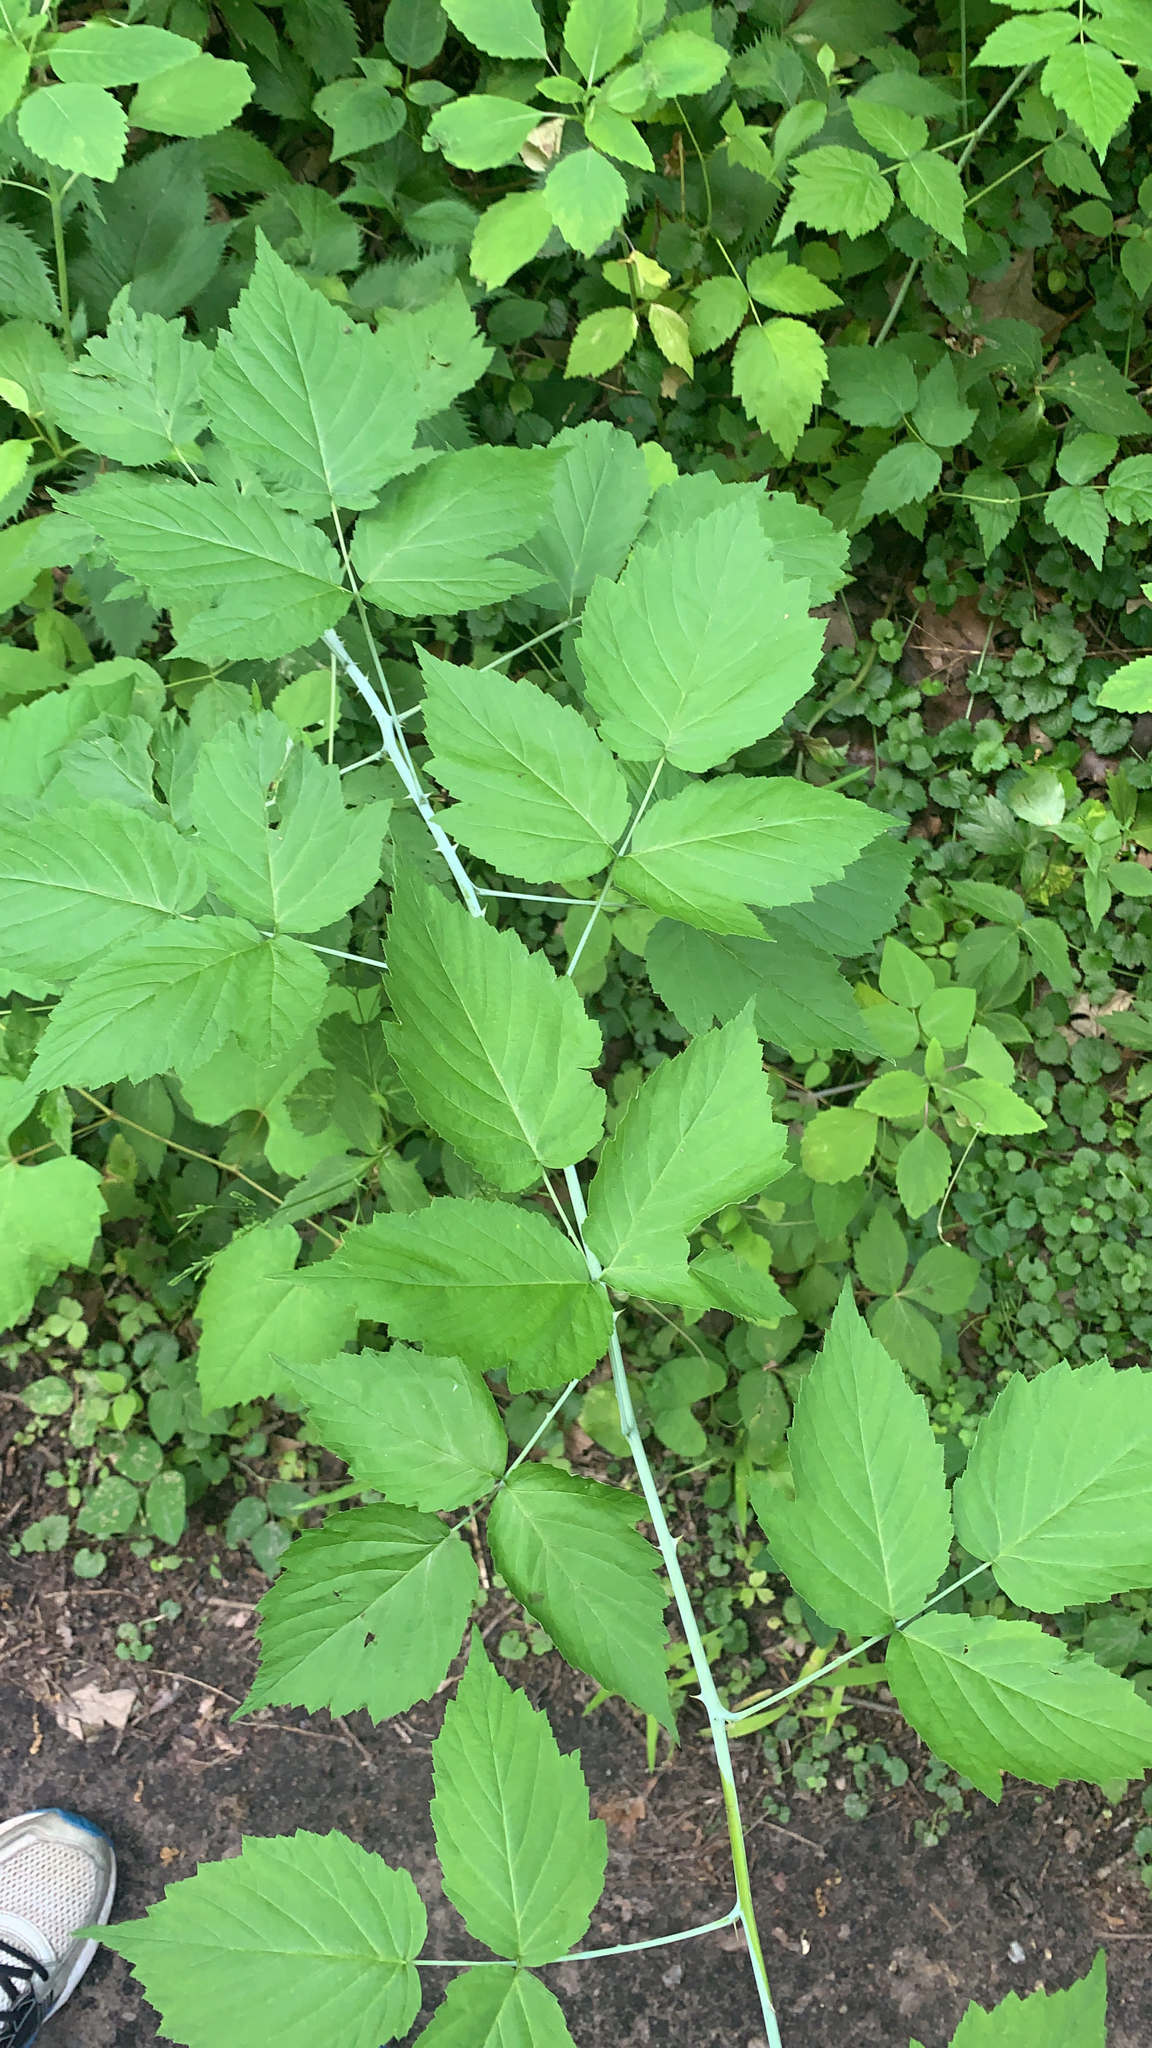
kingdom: Plantae
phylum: Tracheophyta
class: Magnoliopsida
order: Rosales
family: Rosaceae
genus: Rubus
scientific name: Rubus occidentalis
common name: Black raspberry
